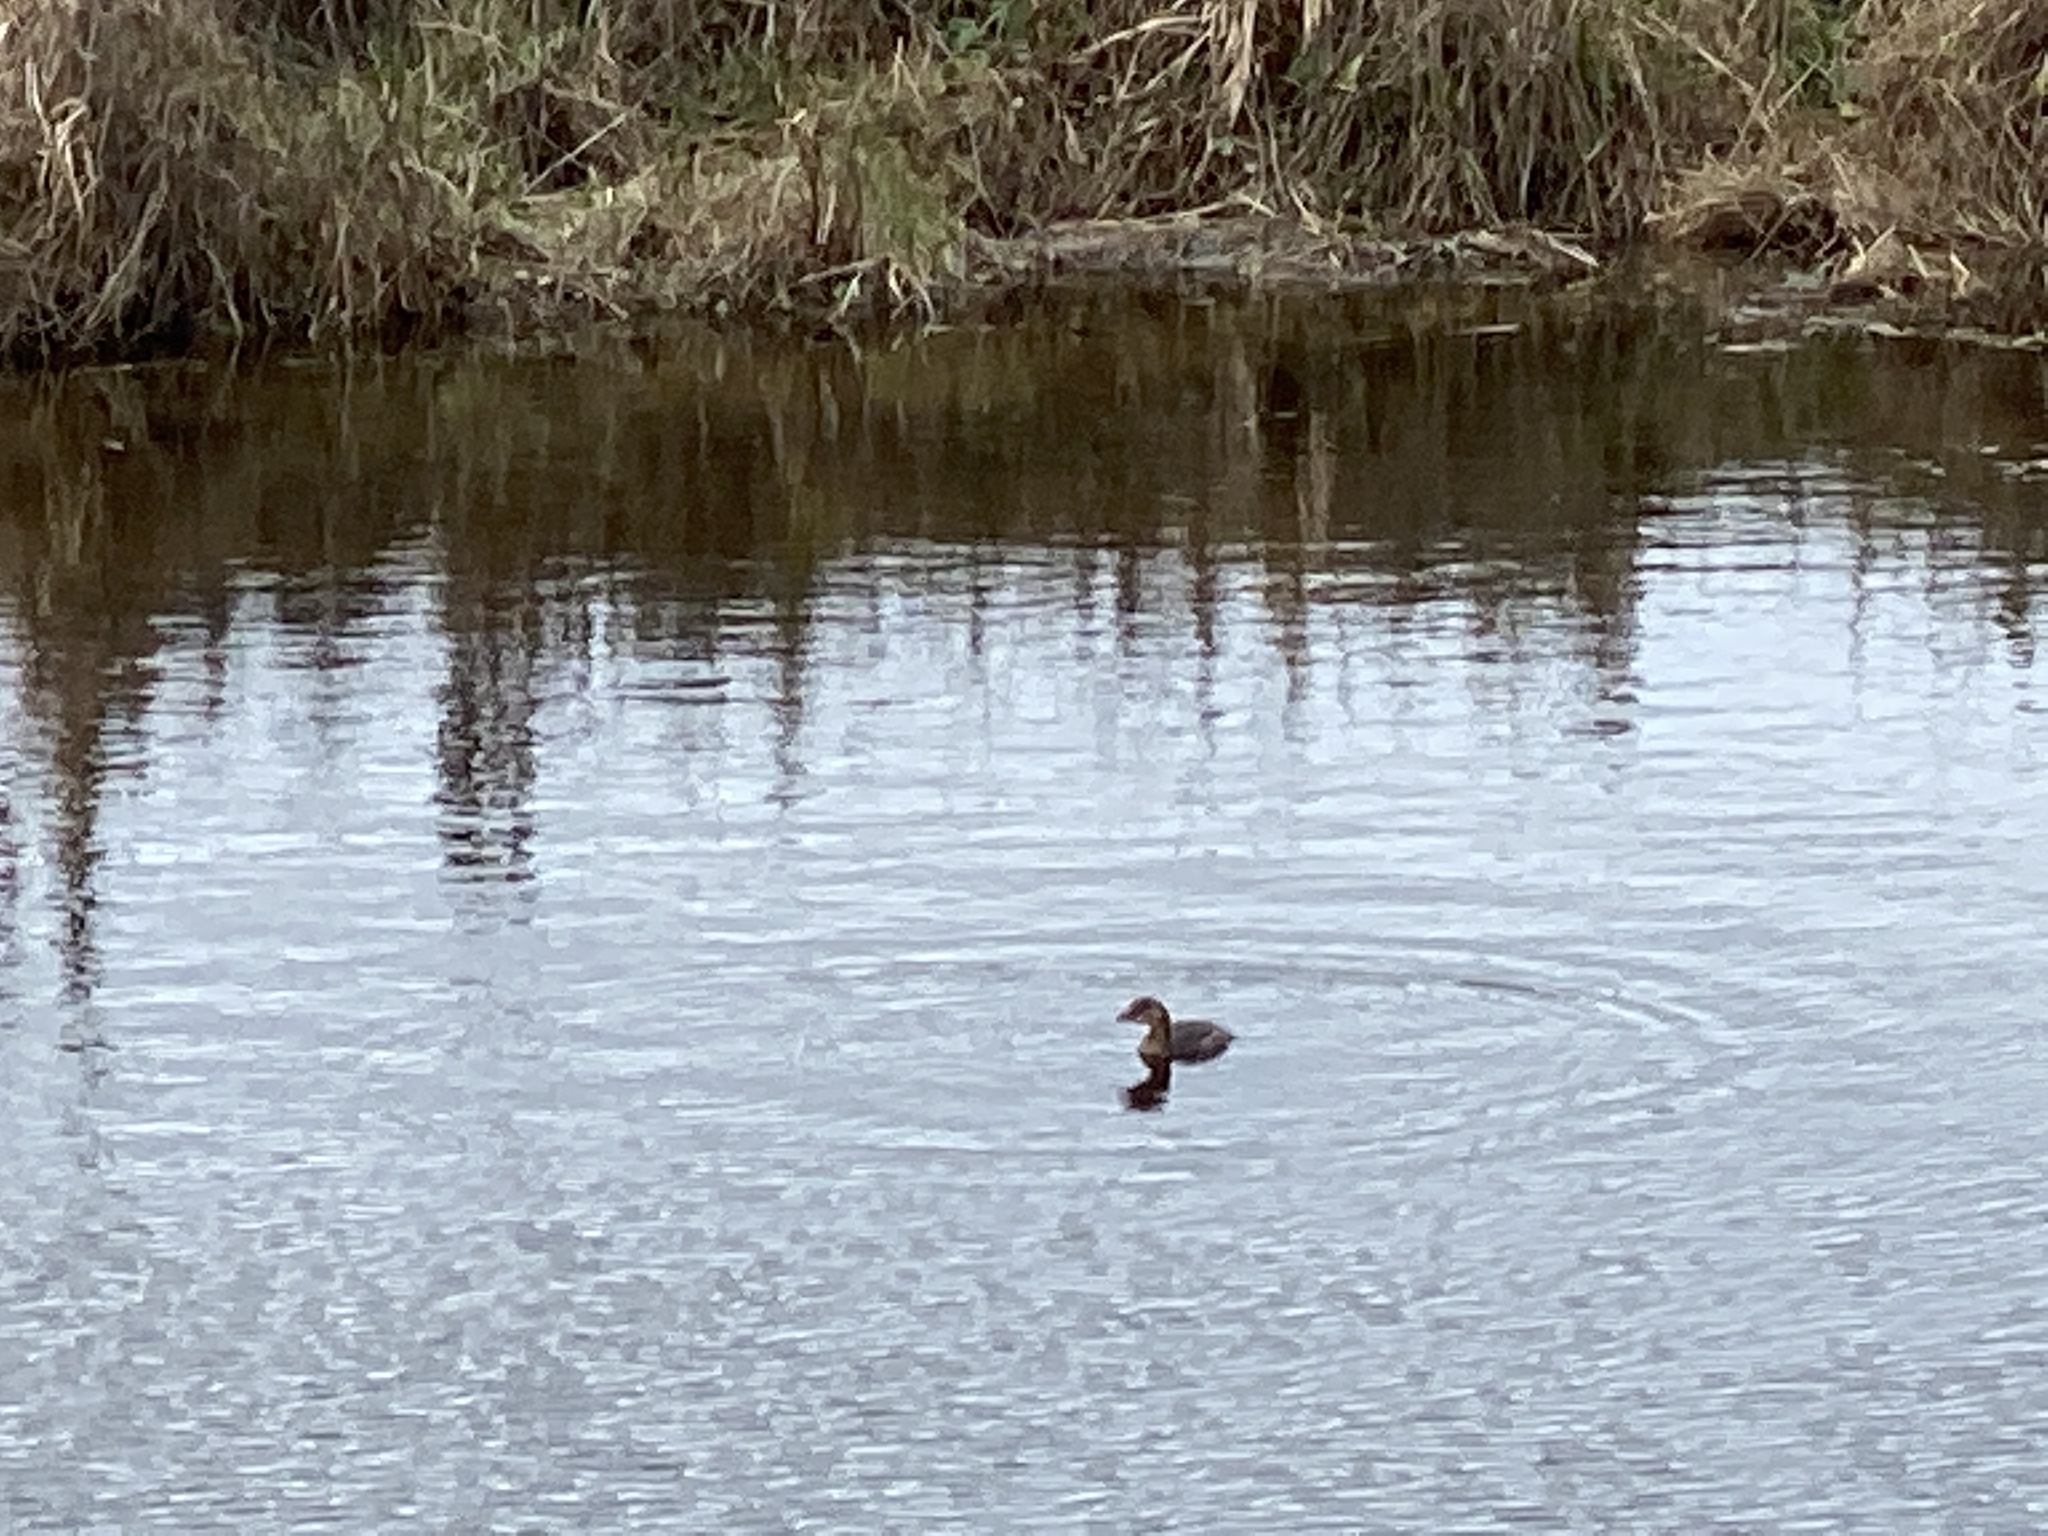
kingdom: Animalia
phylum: Chordata
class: Aves
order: Podicipediformes
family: Podicipedidae
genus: Podilymbus
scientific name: Podilymbus podiceps
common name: Pied-billed grebe
